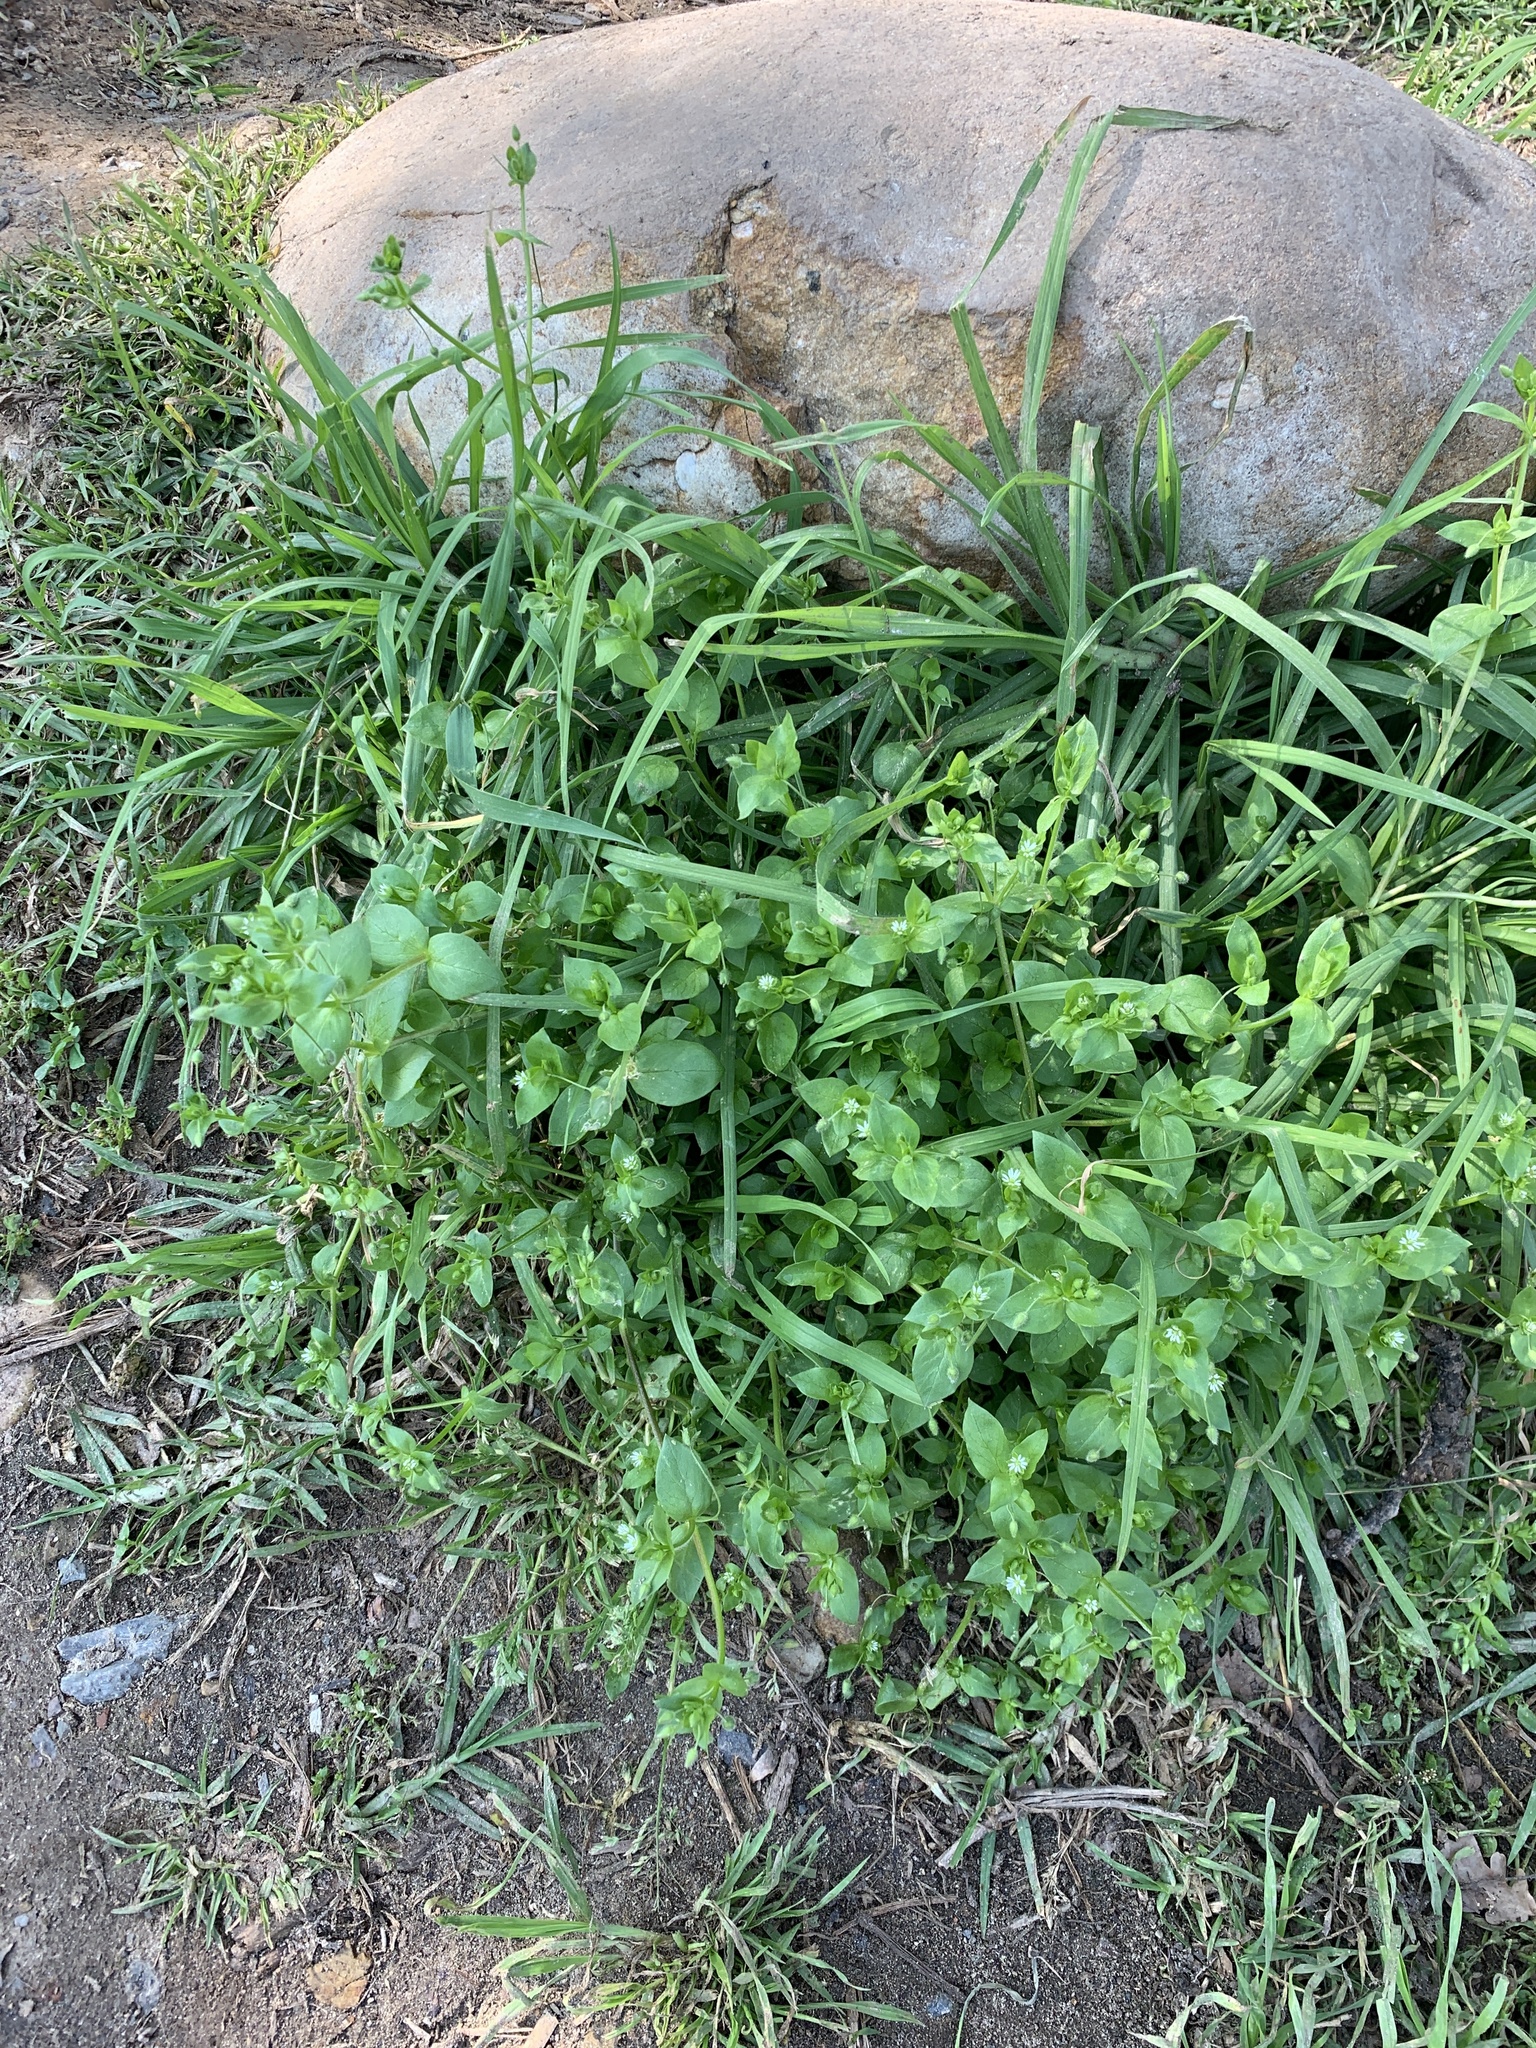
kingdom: Plantae
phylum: Tracheophyta
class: Magnoliopsida
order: Caryophyllales
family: Caryophyllaceae
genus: Stellaria
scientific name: Stellaria media
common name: Common chickweed
